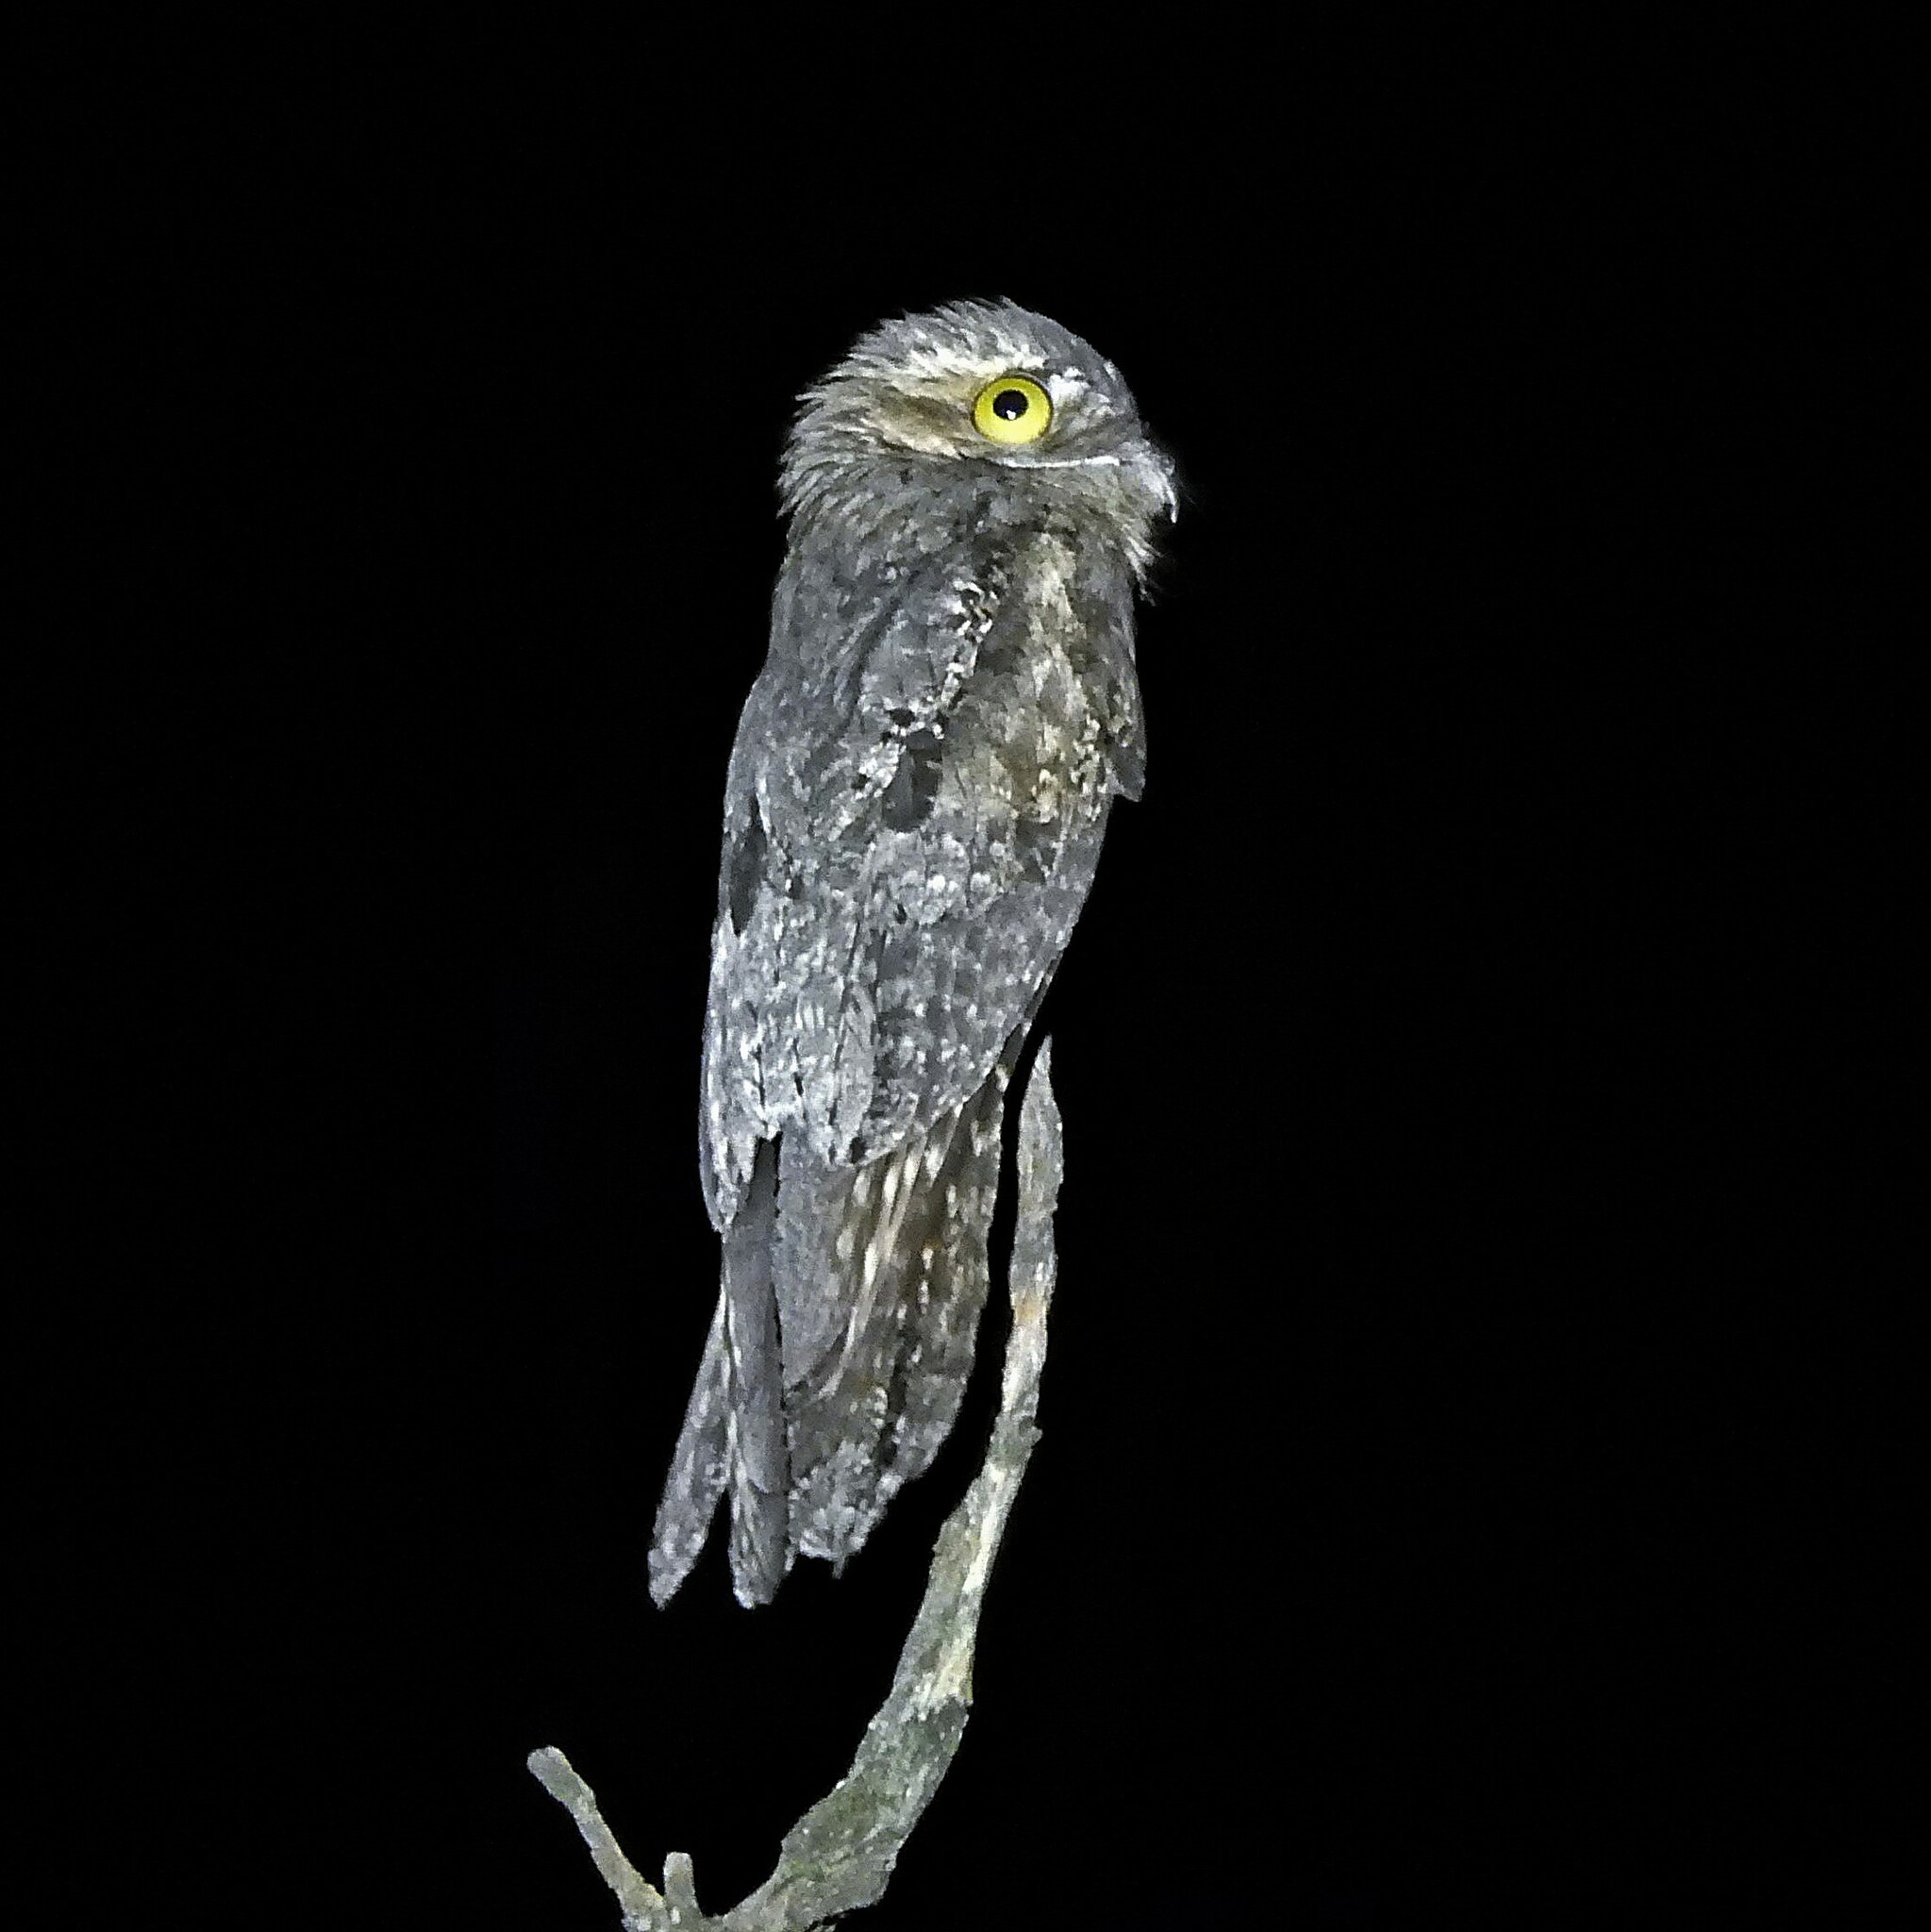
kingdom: Animalia
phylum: Chordata
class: Aves
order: Nyctibiiformes
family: Nyctibiidae
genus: Nyctibius
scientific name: Nyctibius griseus
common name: Common potoo
